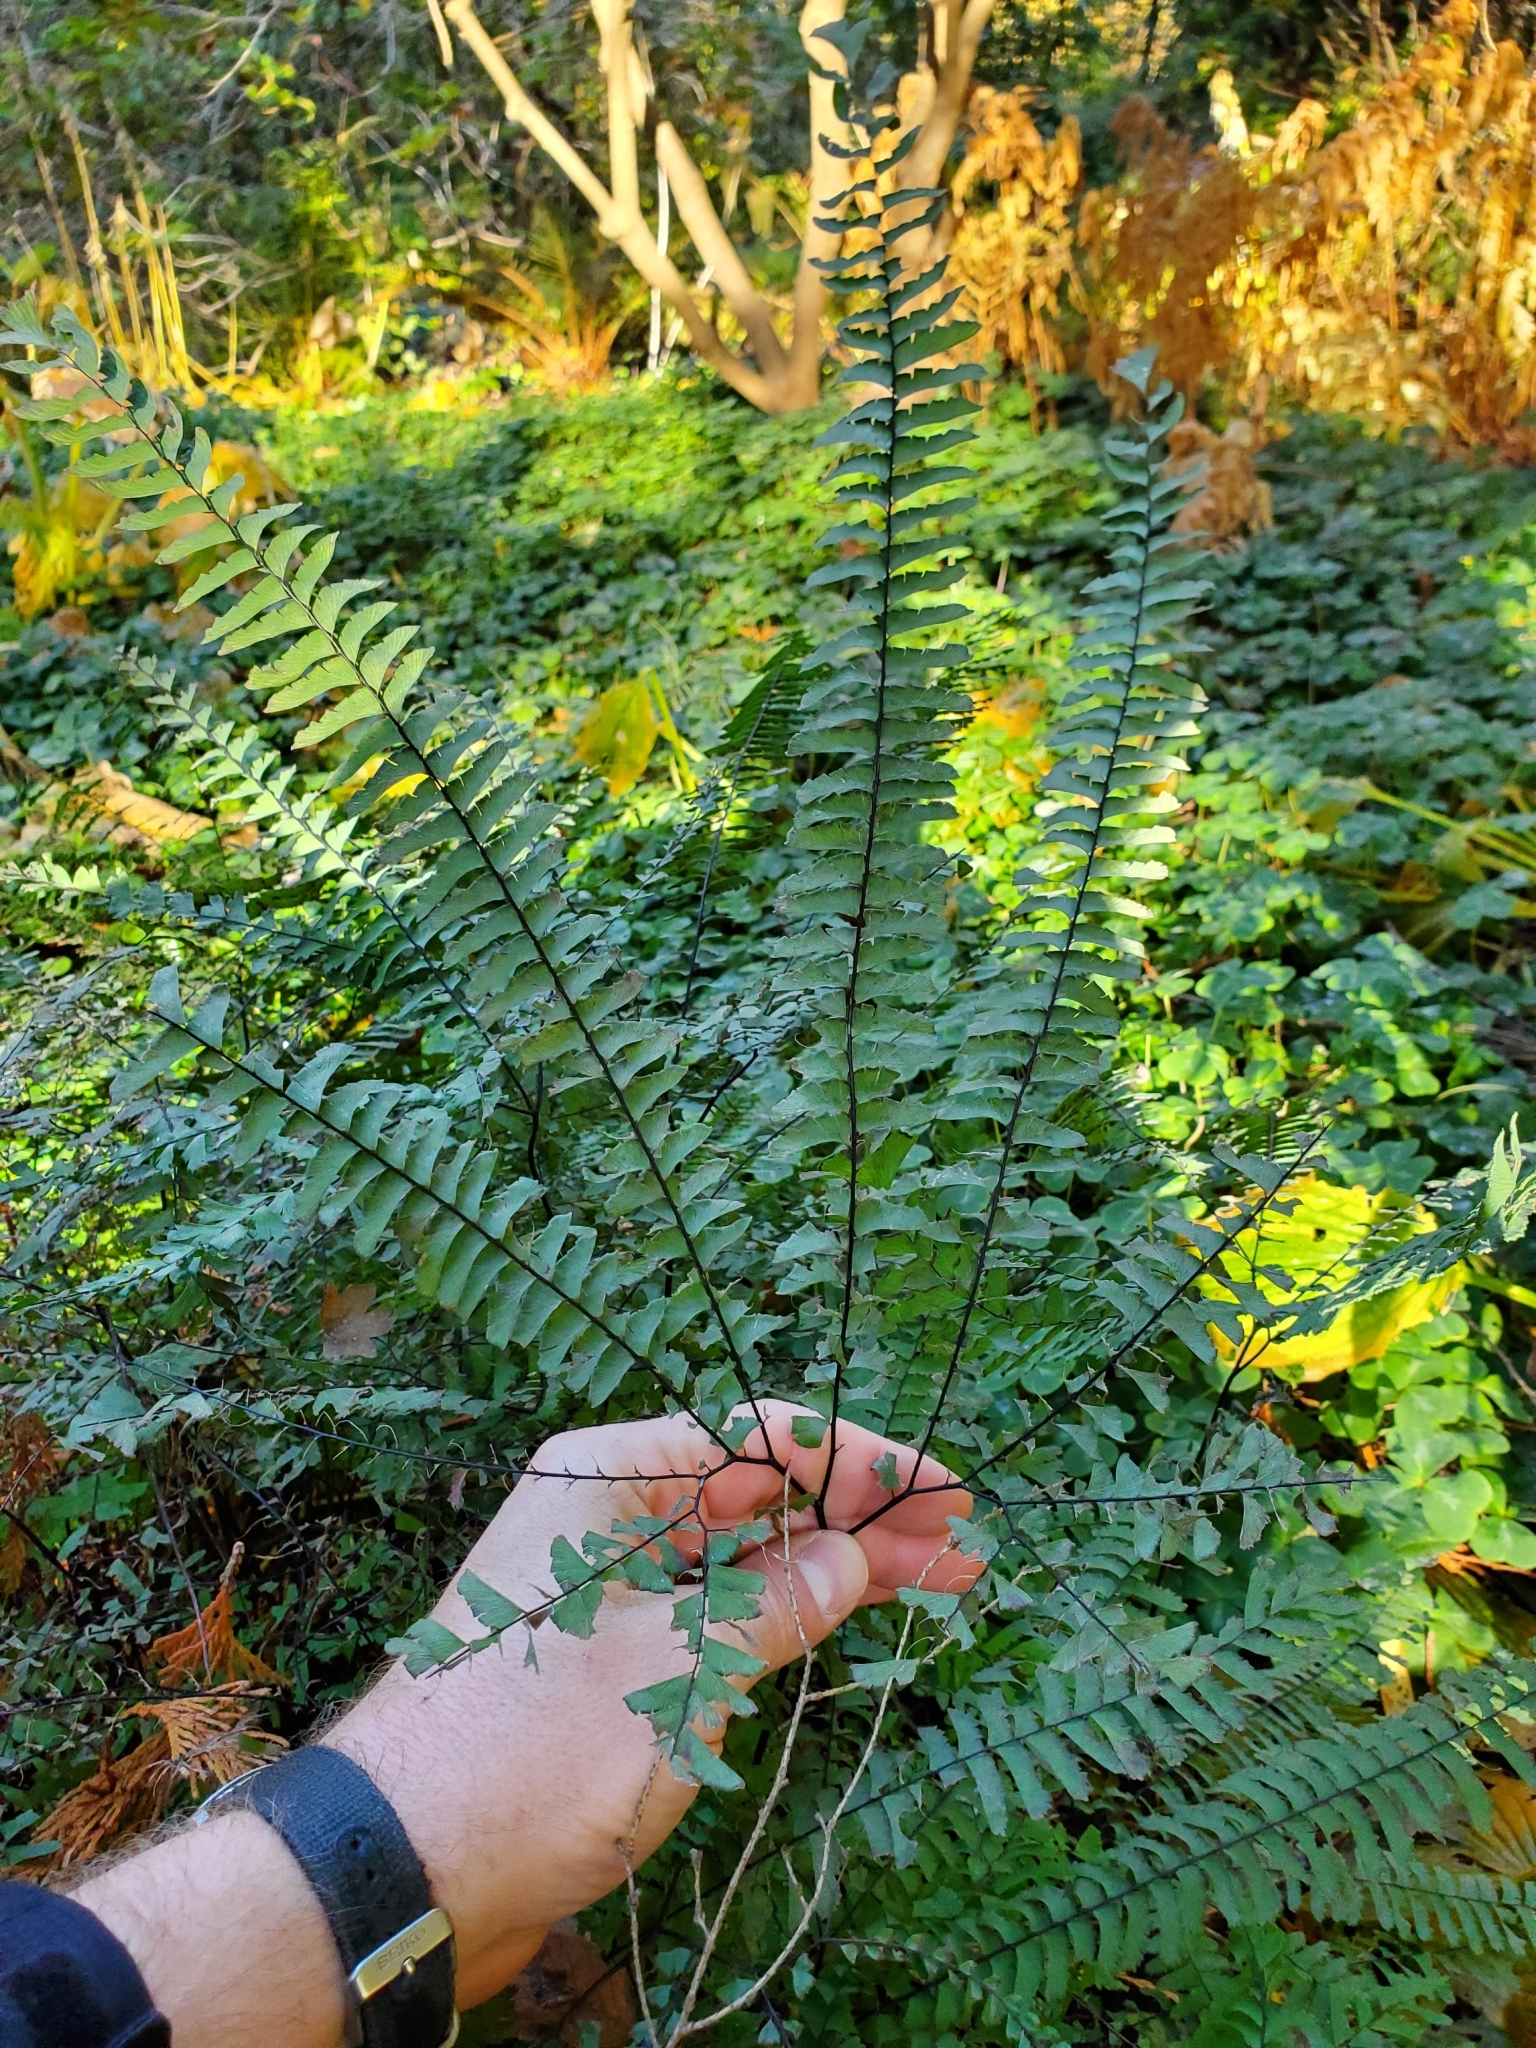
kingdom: Plantae
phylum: Tracheophyta
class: Polypodiopsida
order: Polypodiales
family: Pteridaceae
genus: Adiantum
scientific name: Adiantum aleuticum
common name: Aleutian maidenhair fern
